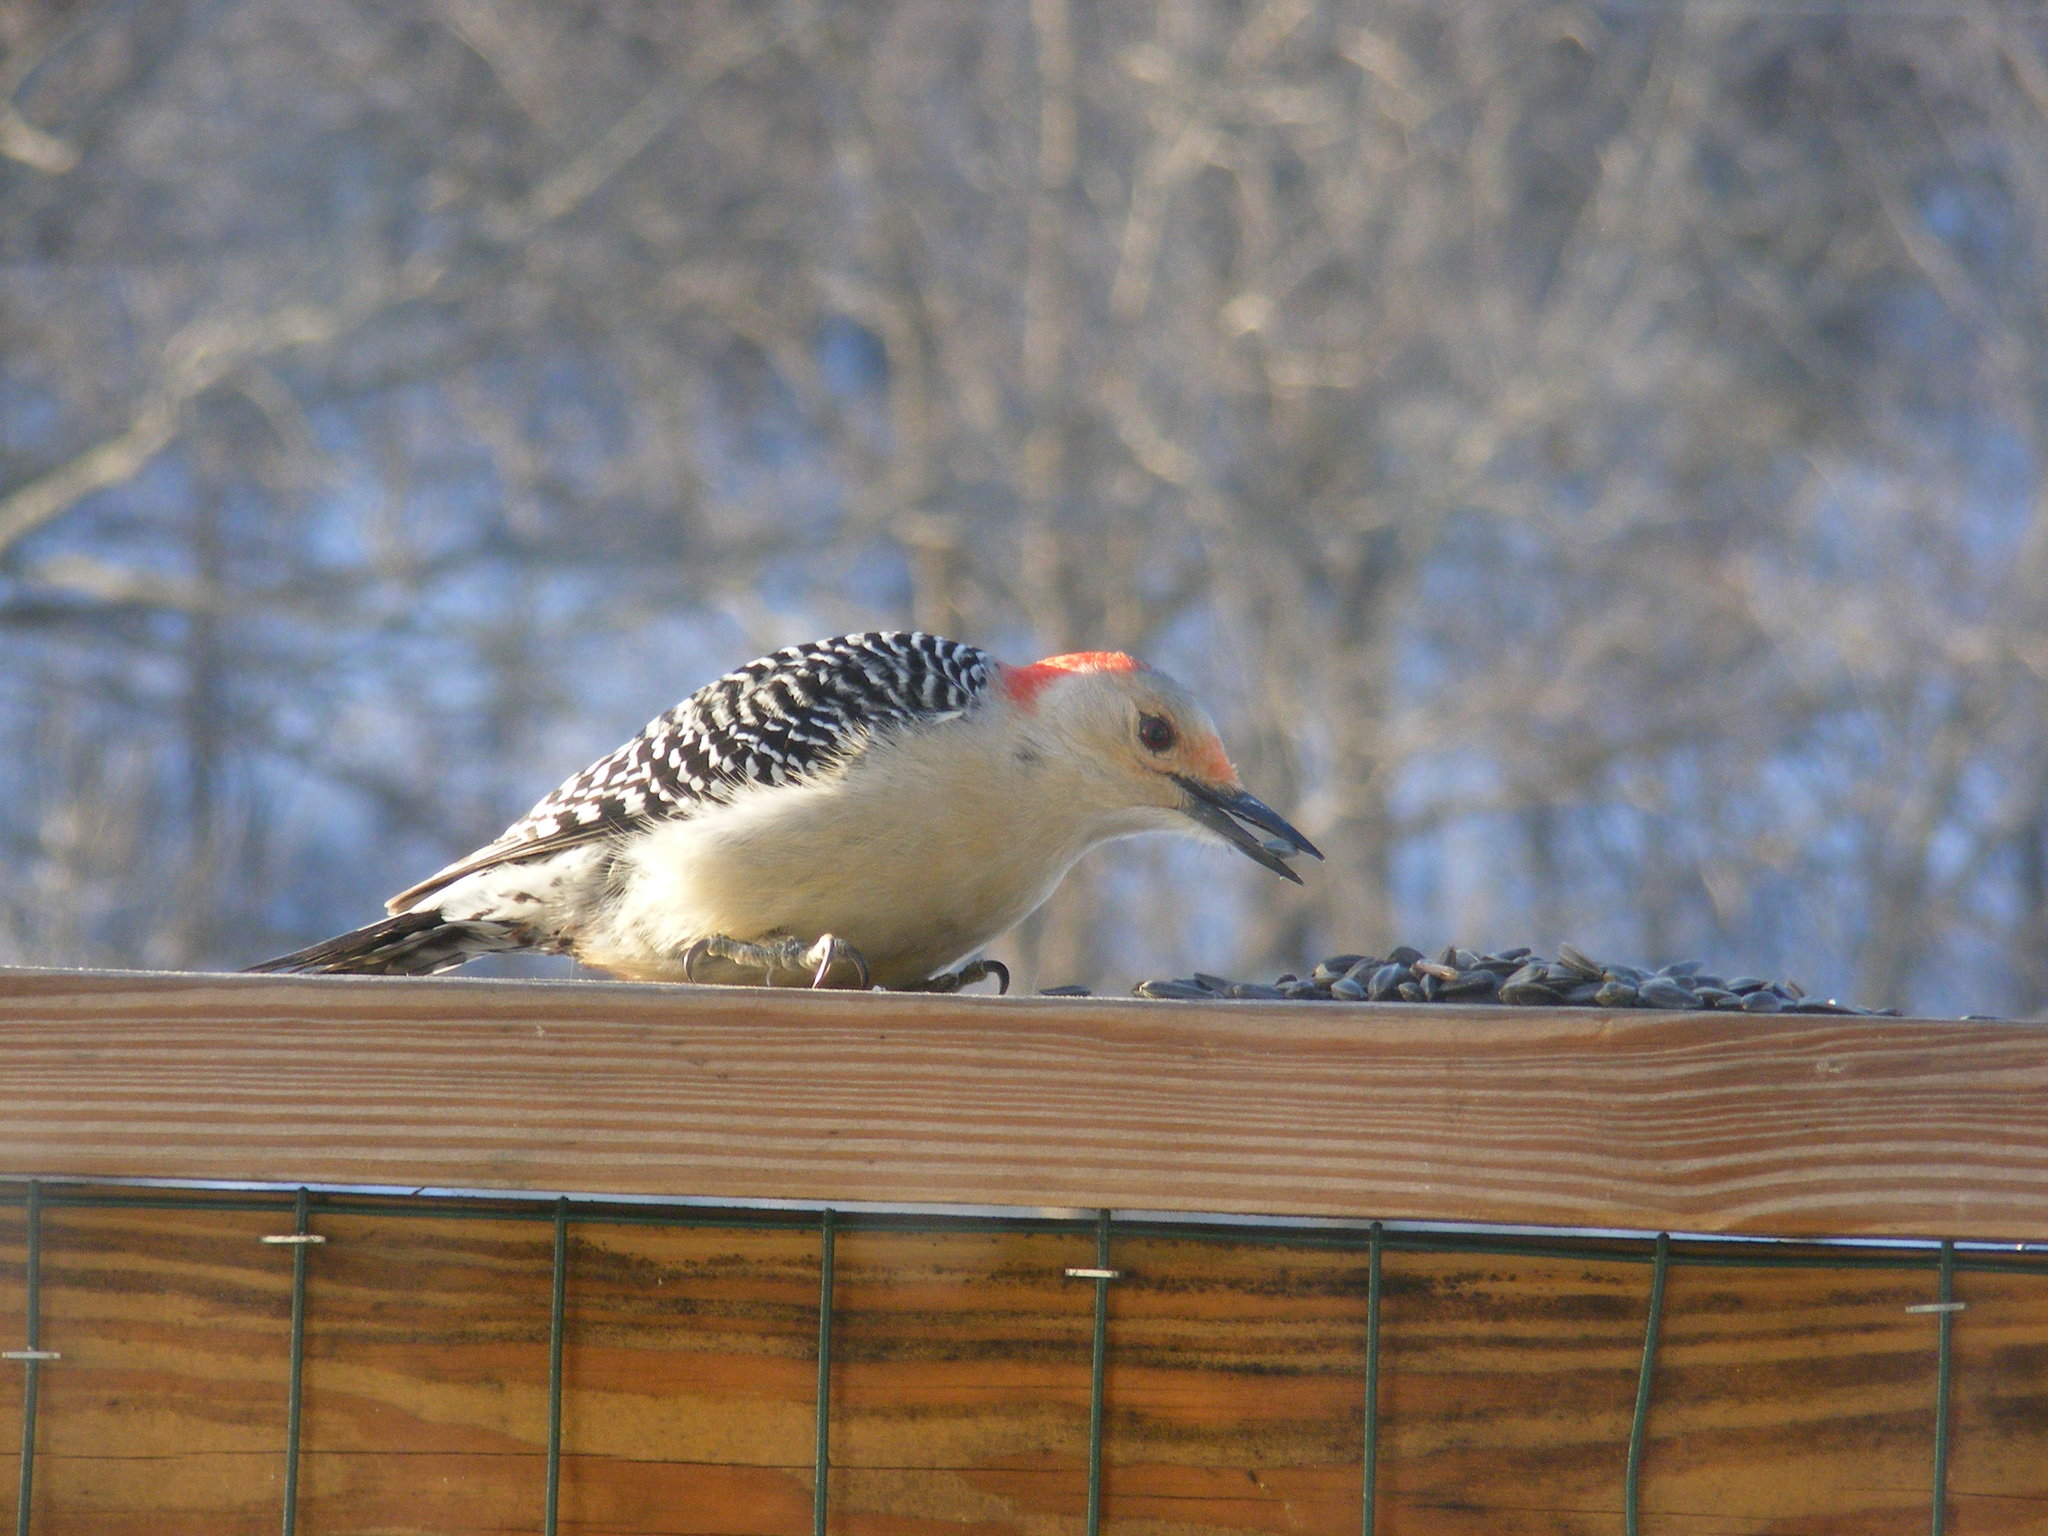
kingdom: Animalia
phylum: Chordata
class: Aves
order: Piciformes
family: Picidae
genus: Melanerpes
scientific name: Melanerpes carolinus
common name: Red-bellied woodpecker
